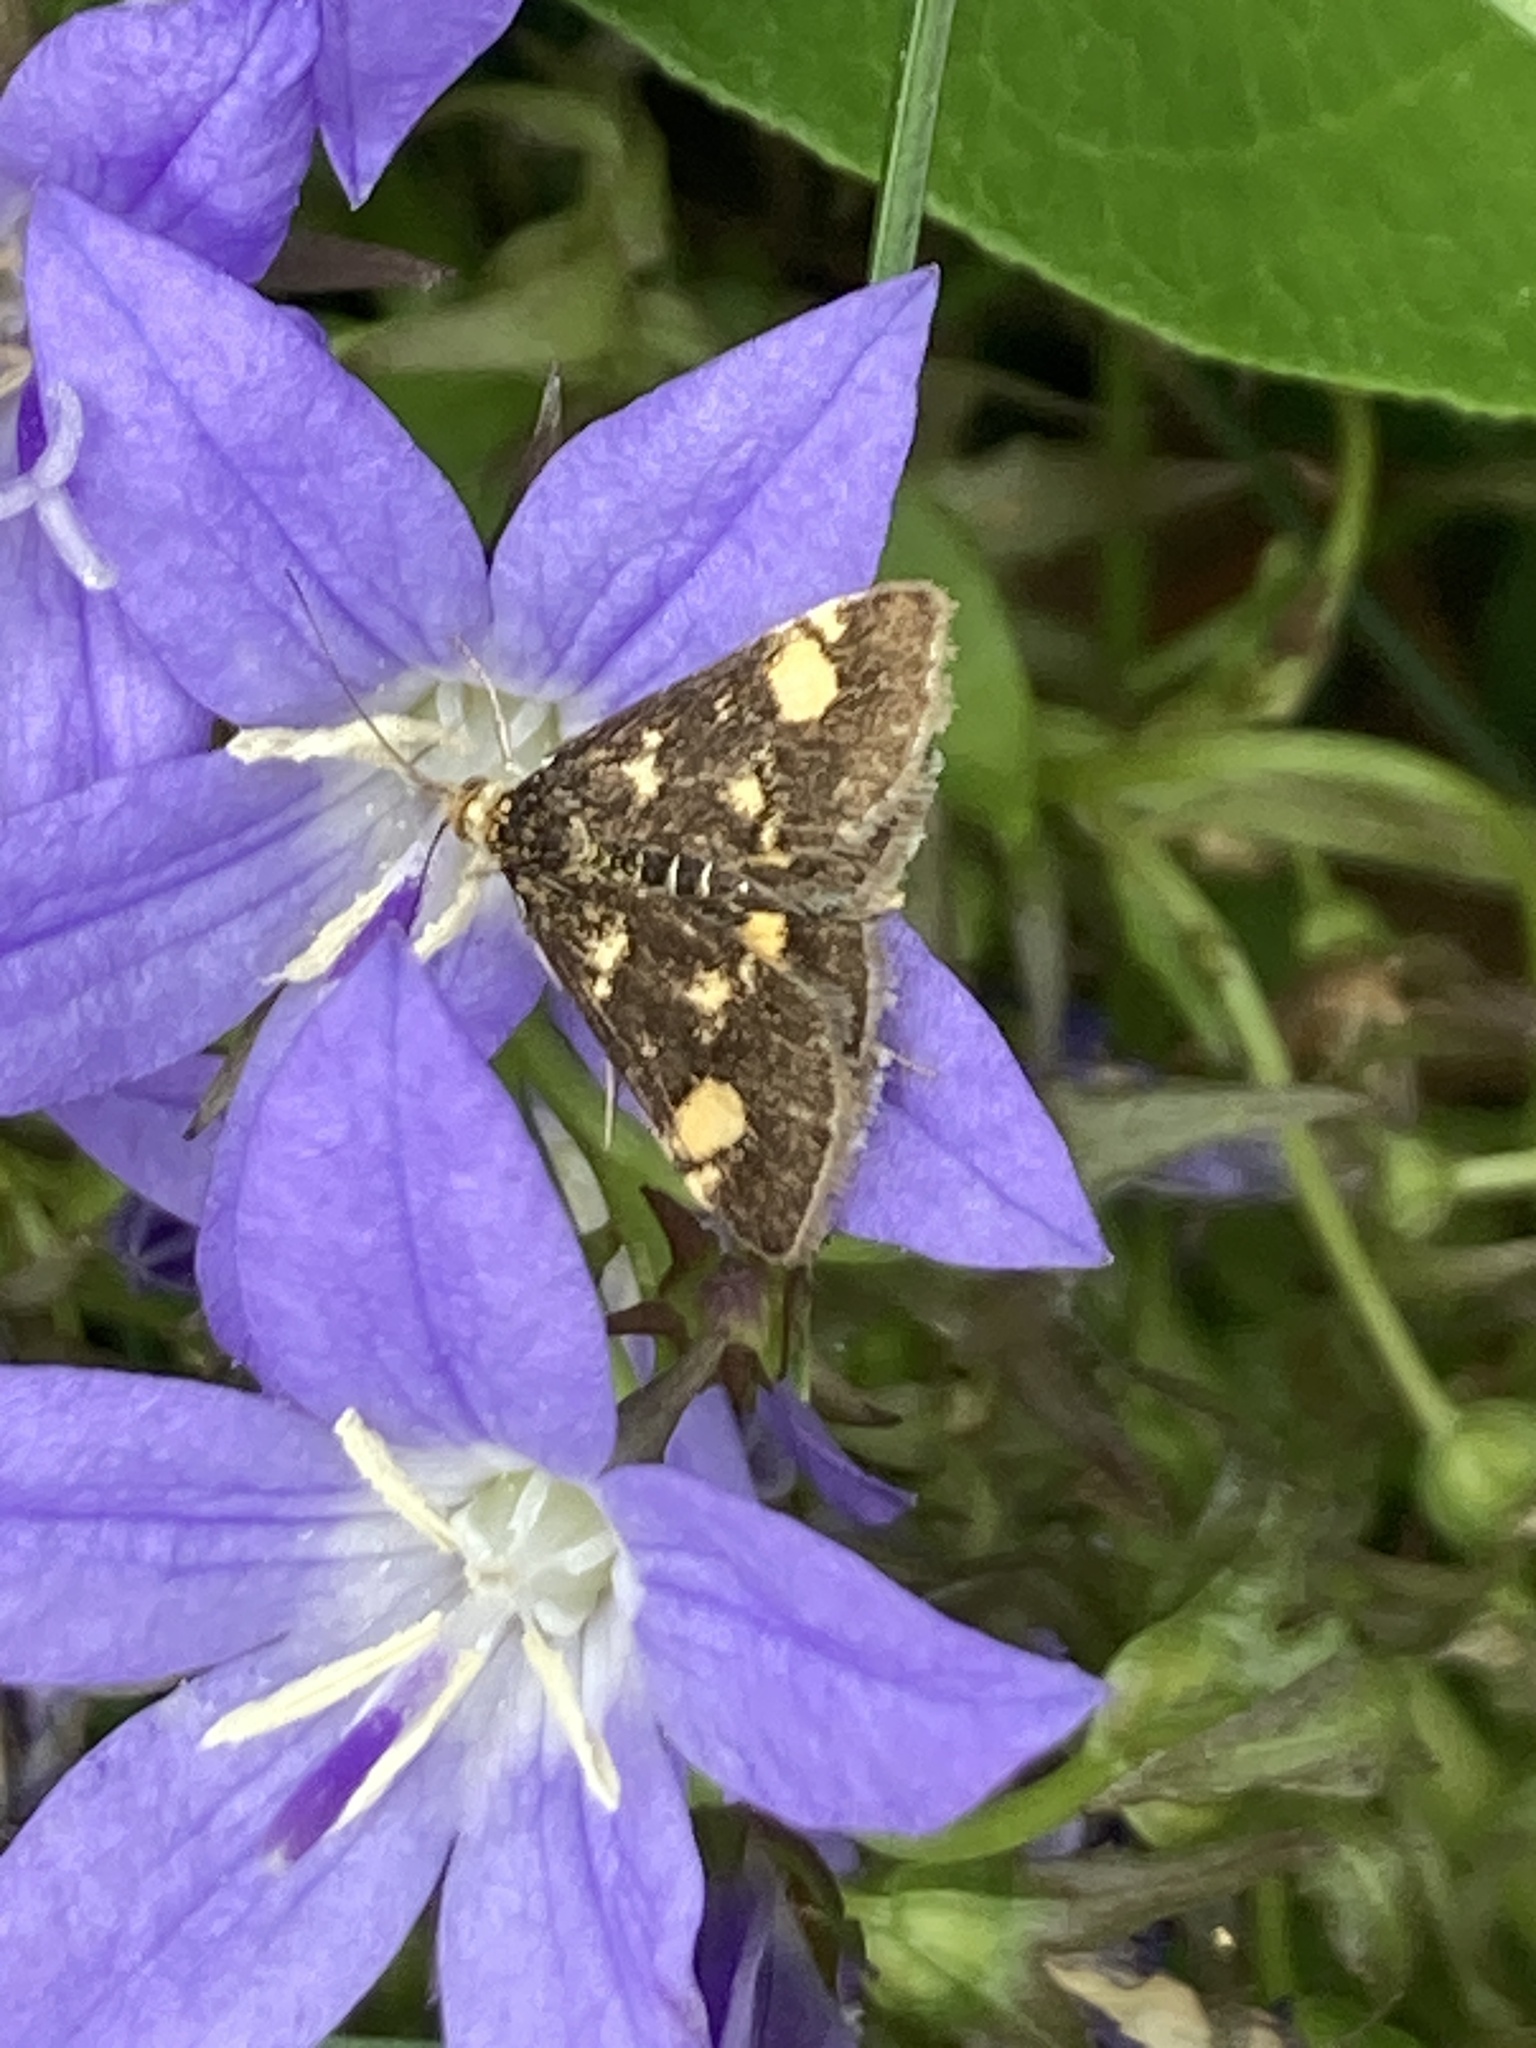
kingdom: Animalia
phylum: Arthropoda
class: Insecta
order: Lepidoptera
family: Crambidae
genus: Pyrausta
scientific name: Pyrausta aurata
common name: Small purple & gold
